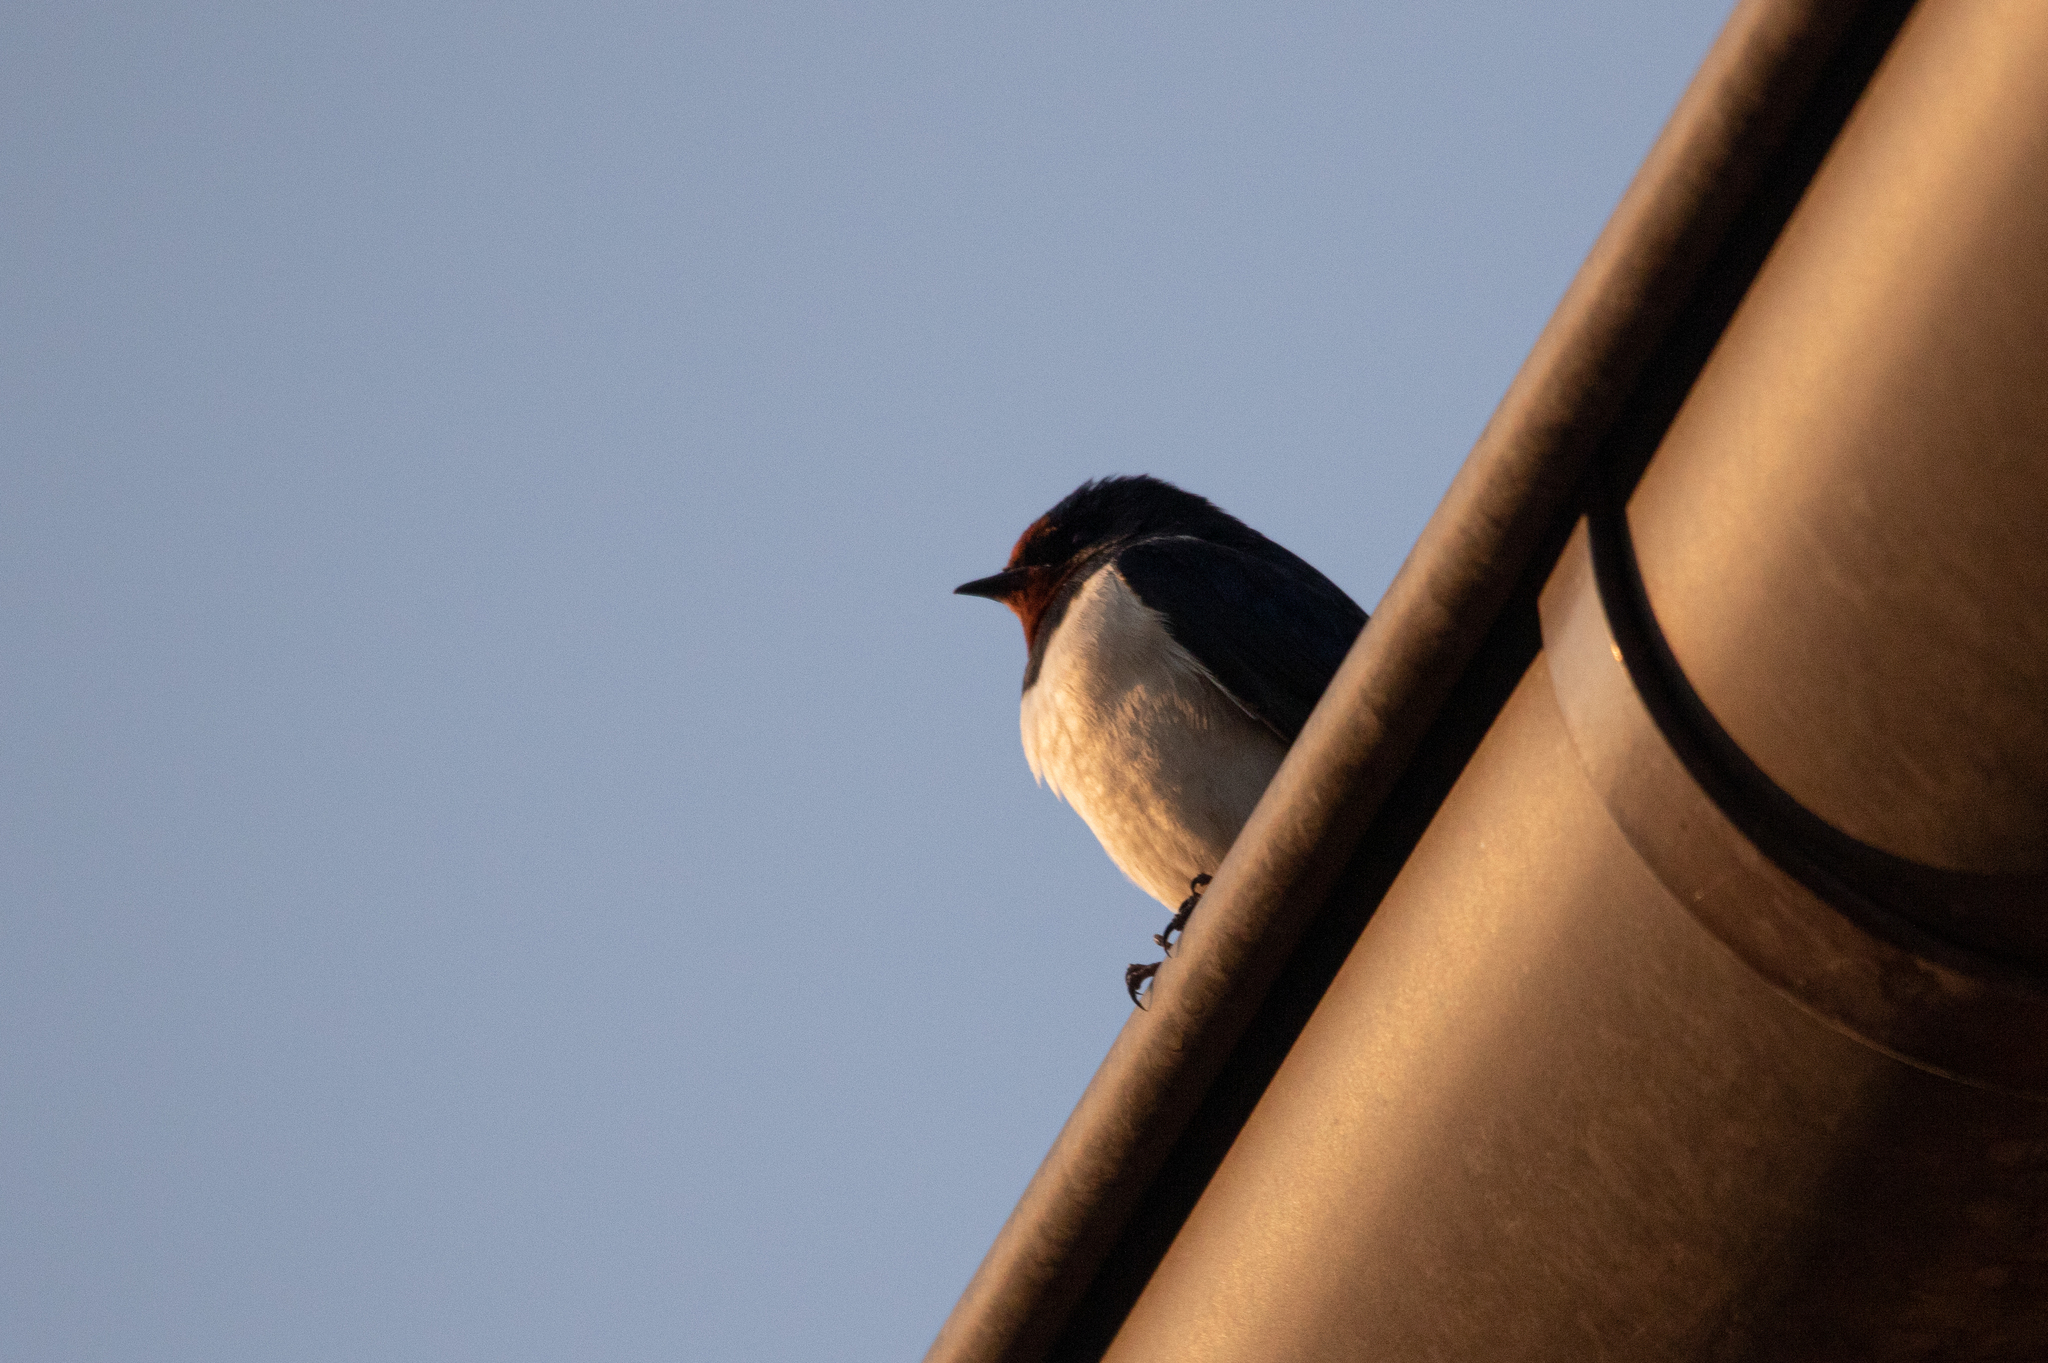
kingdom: Animalia
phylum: Chordata
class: Aves
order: Passeriformes
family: Hirundinidae
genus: Hirundo
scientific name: Hirundo rustica
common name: Barn swallow
